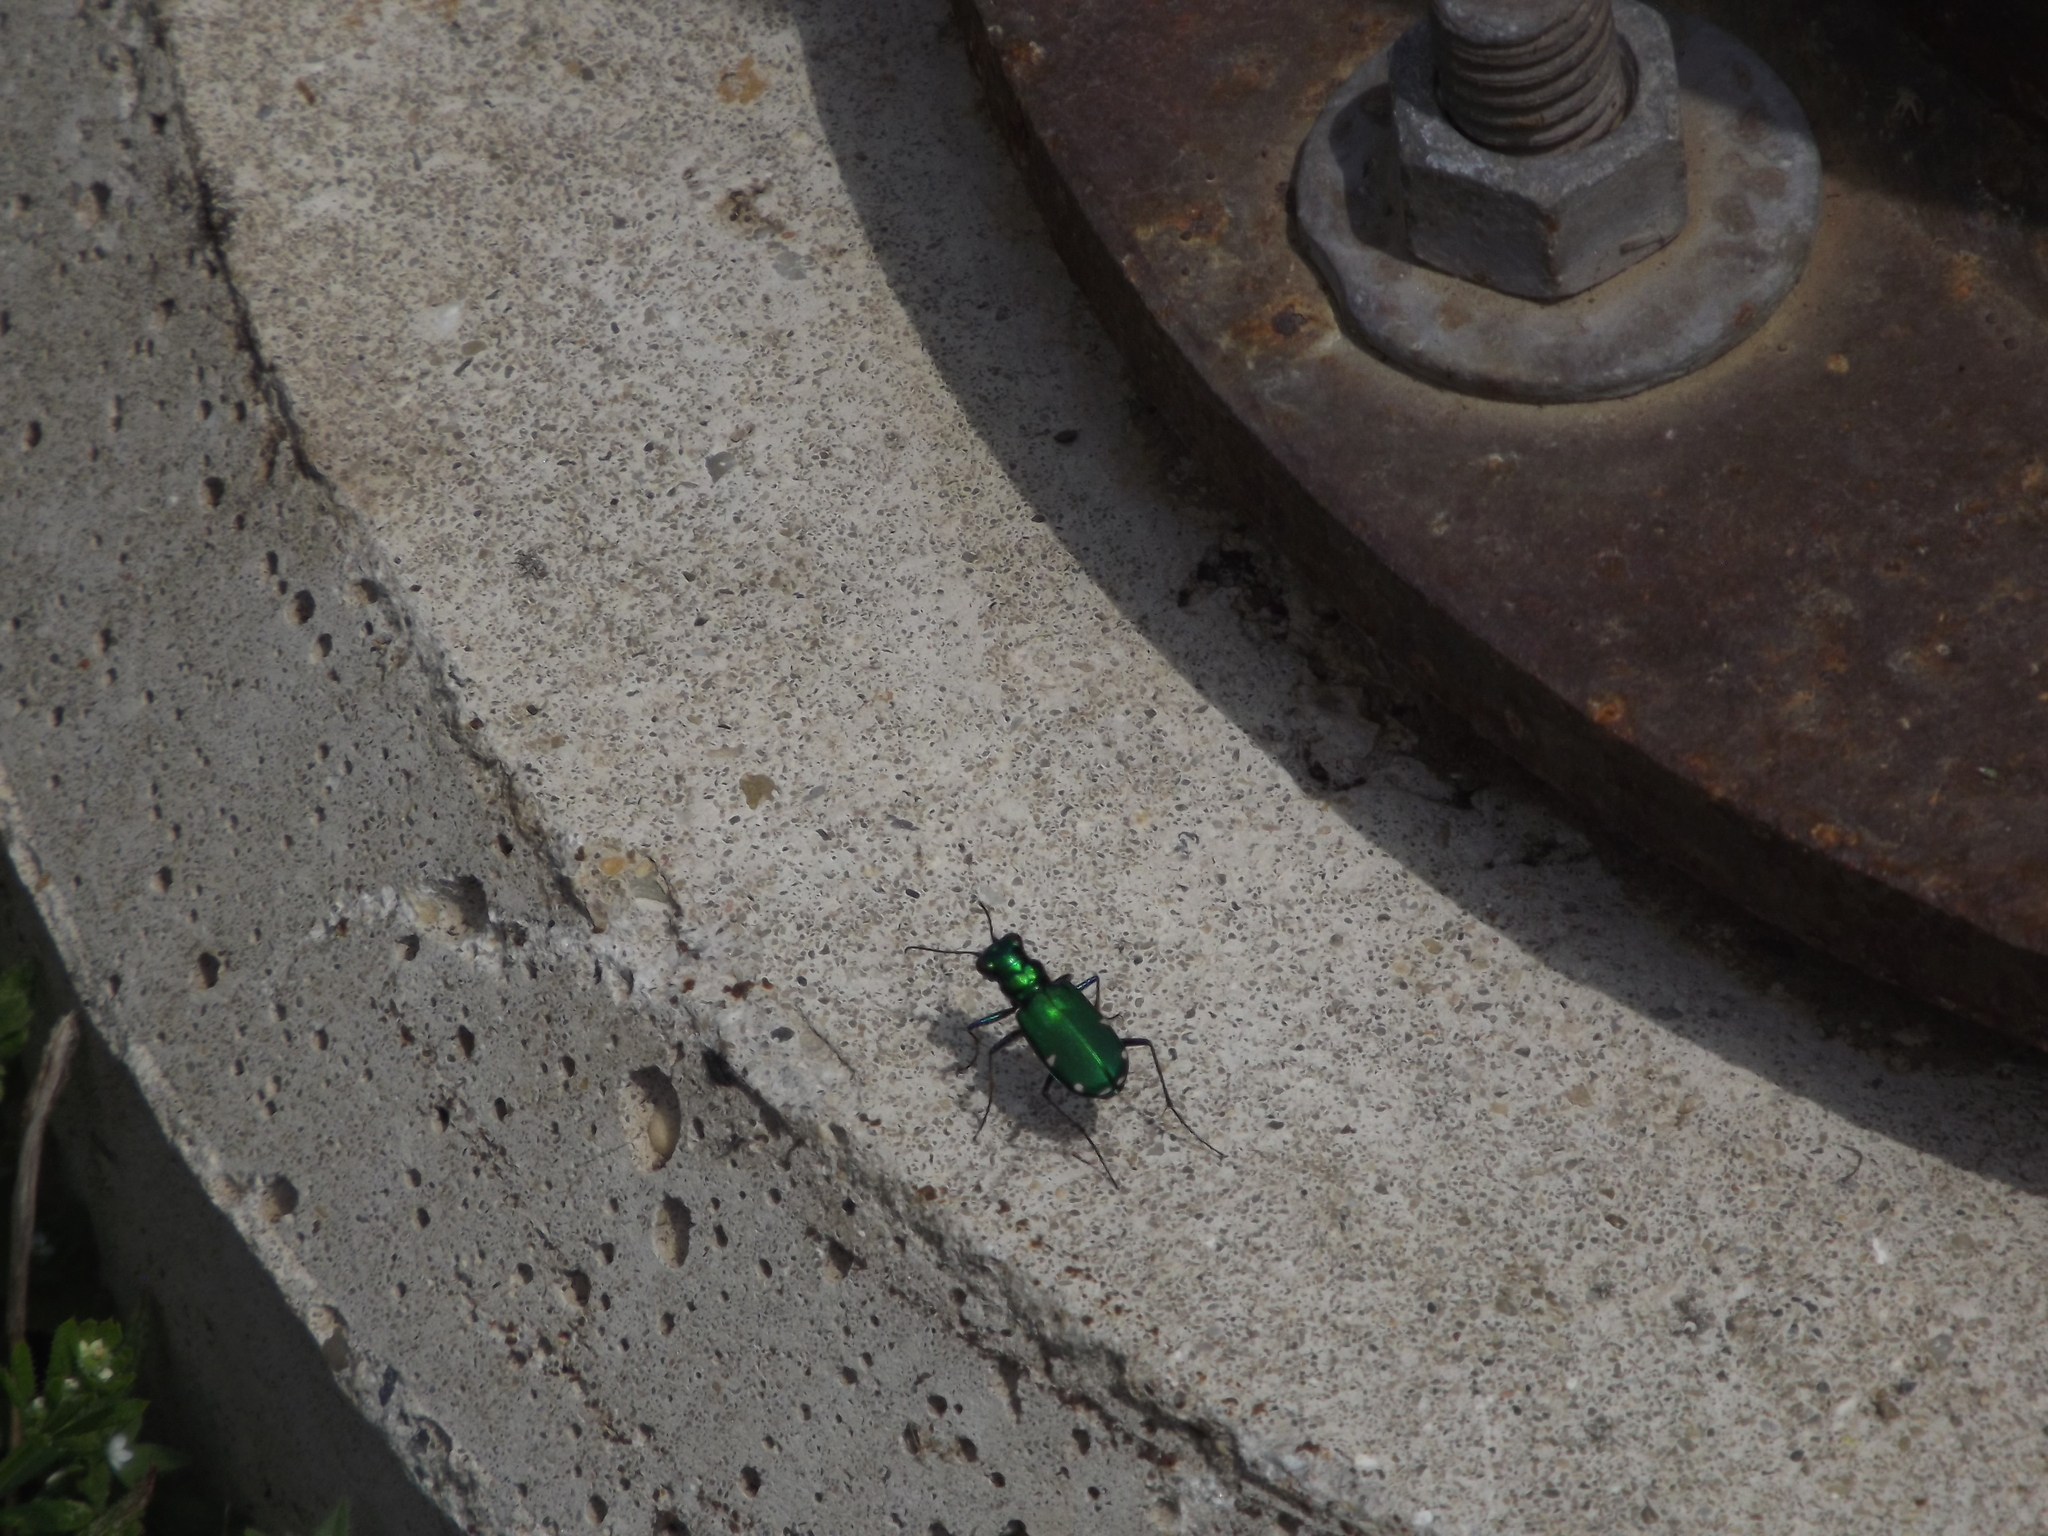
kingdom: Animalia
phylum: Arthropoda
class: Insecta
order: Coleoptera
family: Carabidae
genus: Cicindela
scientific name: Cicindela sexguttata
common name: Six-spotted tiger beetle
